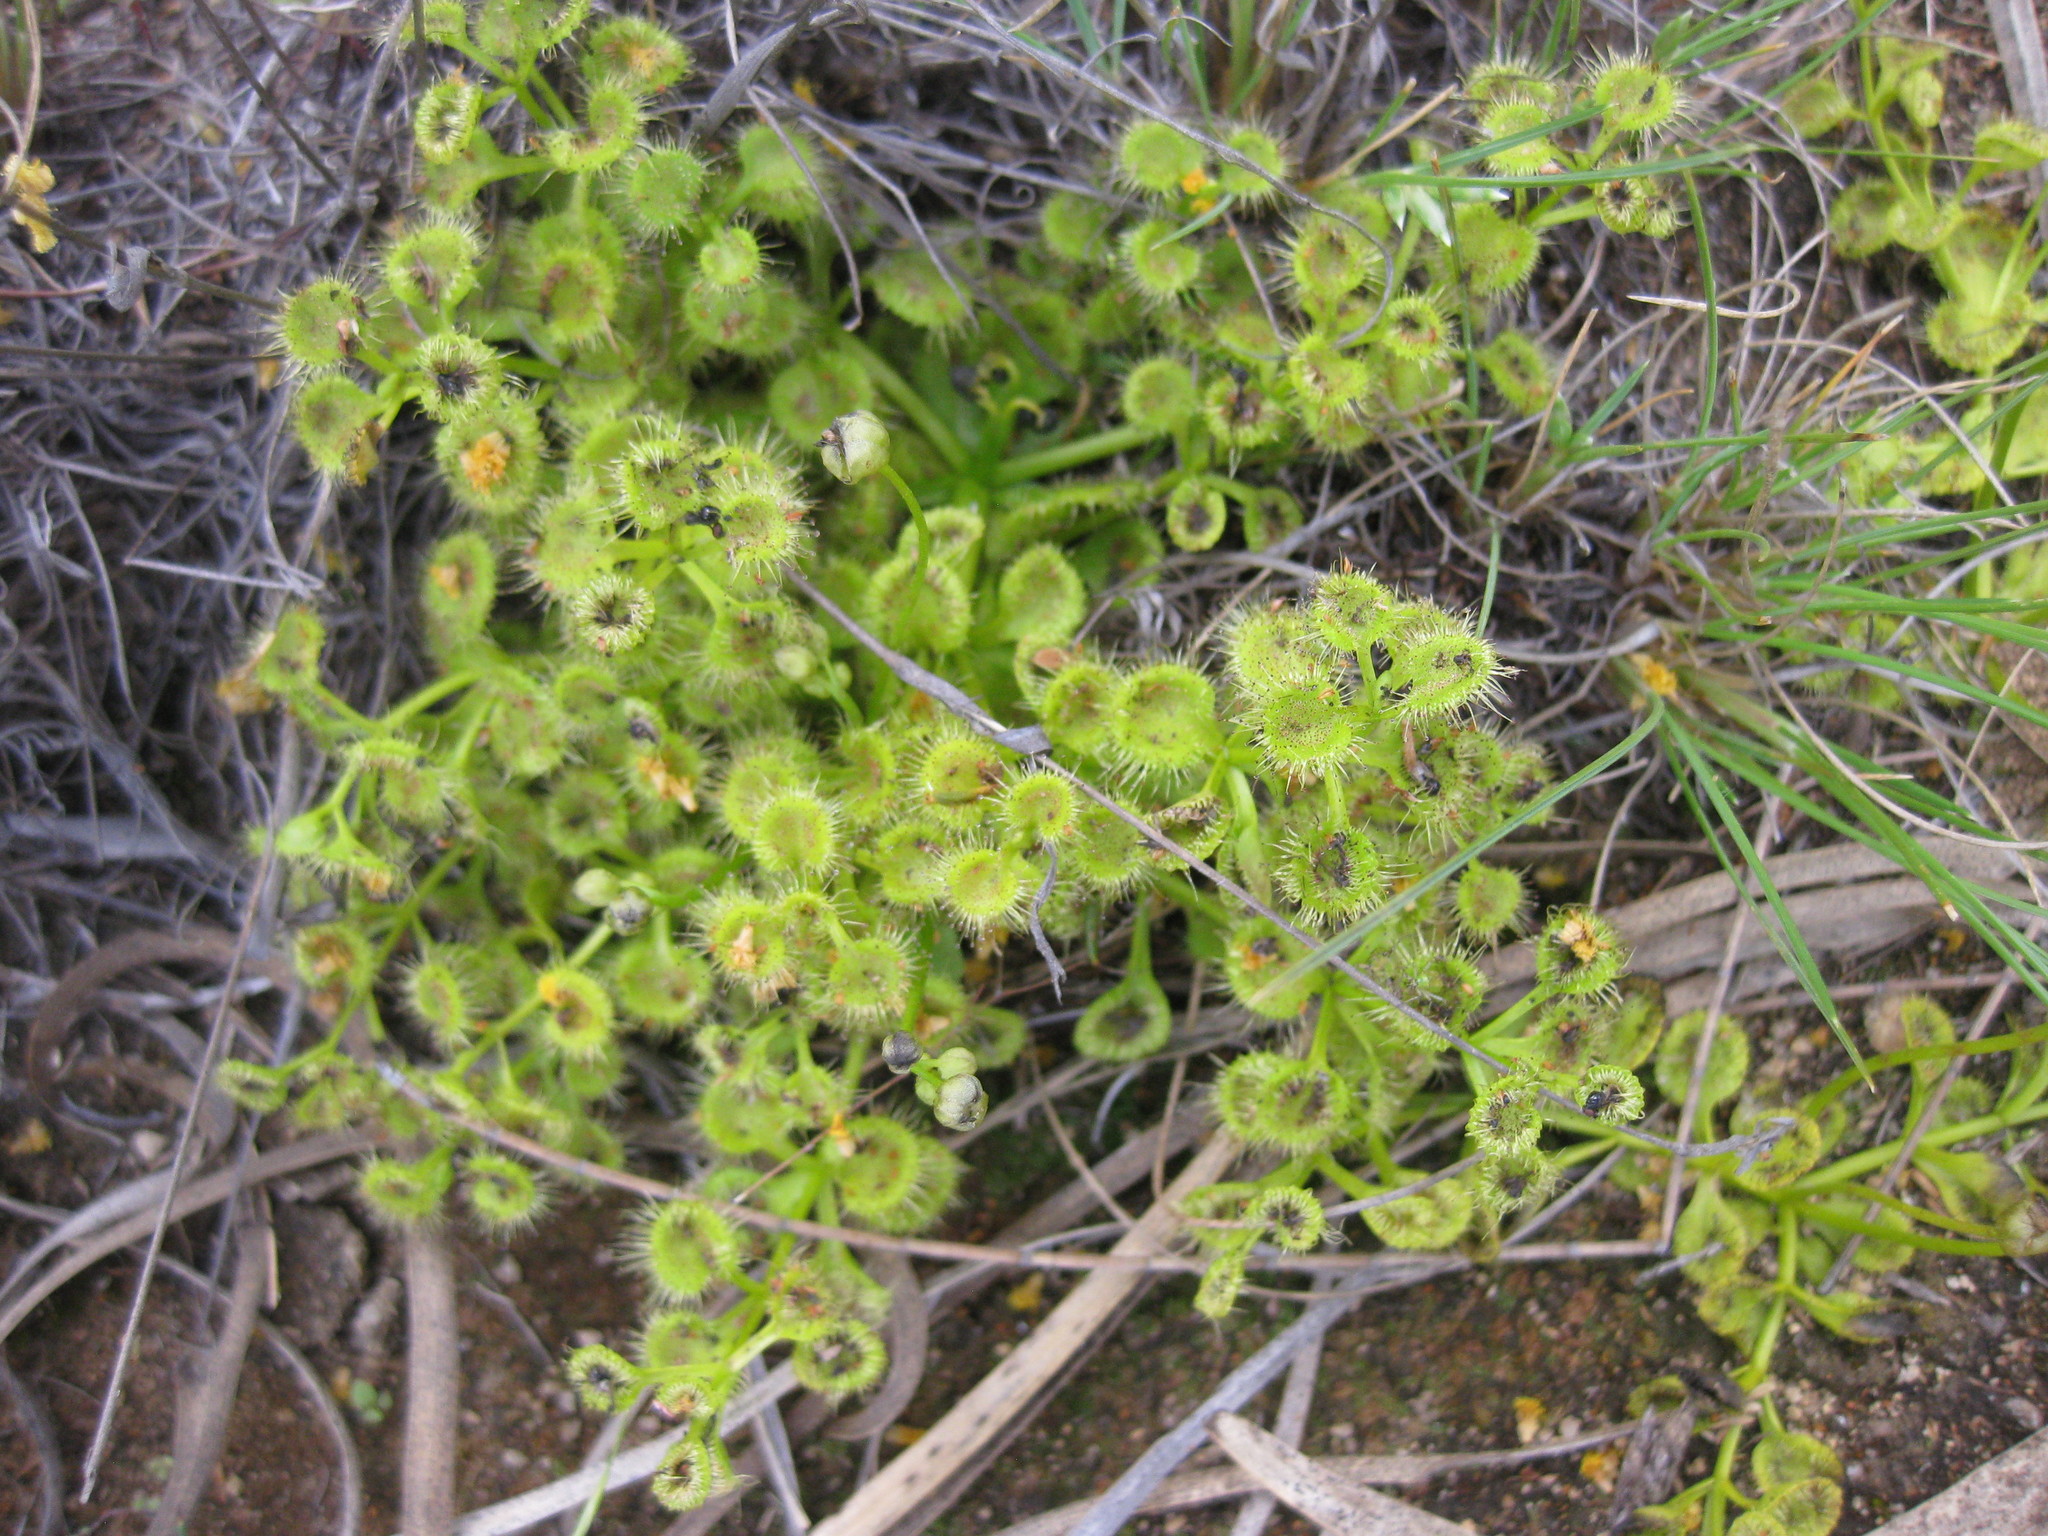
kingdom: Plantae
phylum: Tracheophyta
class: Magnoliopsida
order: Caryophyllales
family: Droseraceae
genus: Drosera
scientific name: Drosera rupicola
